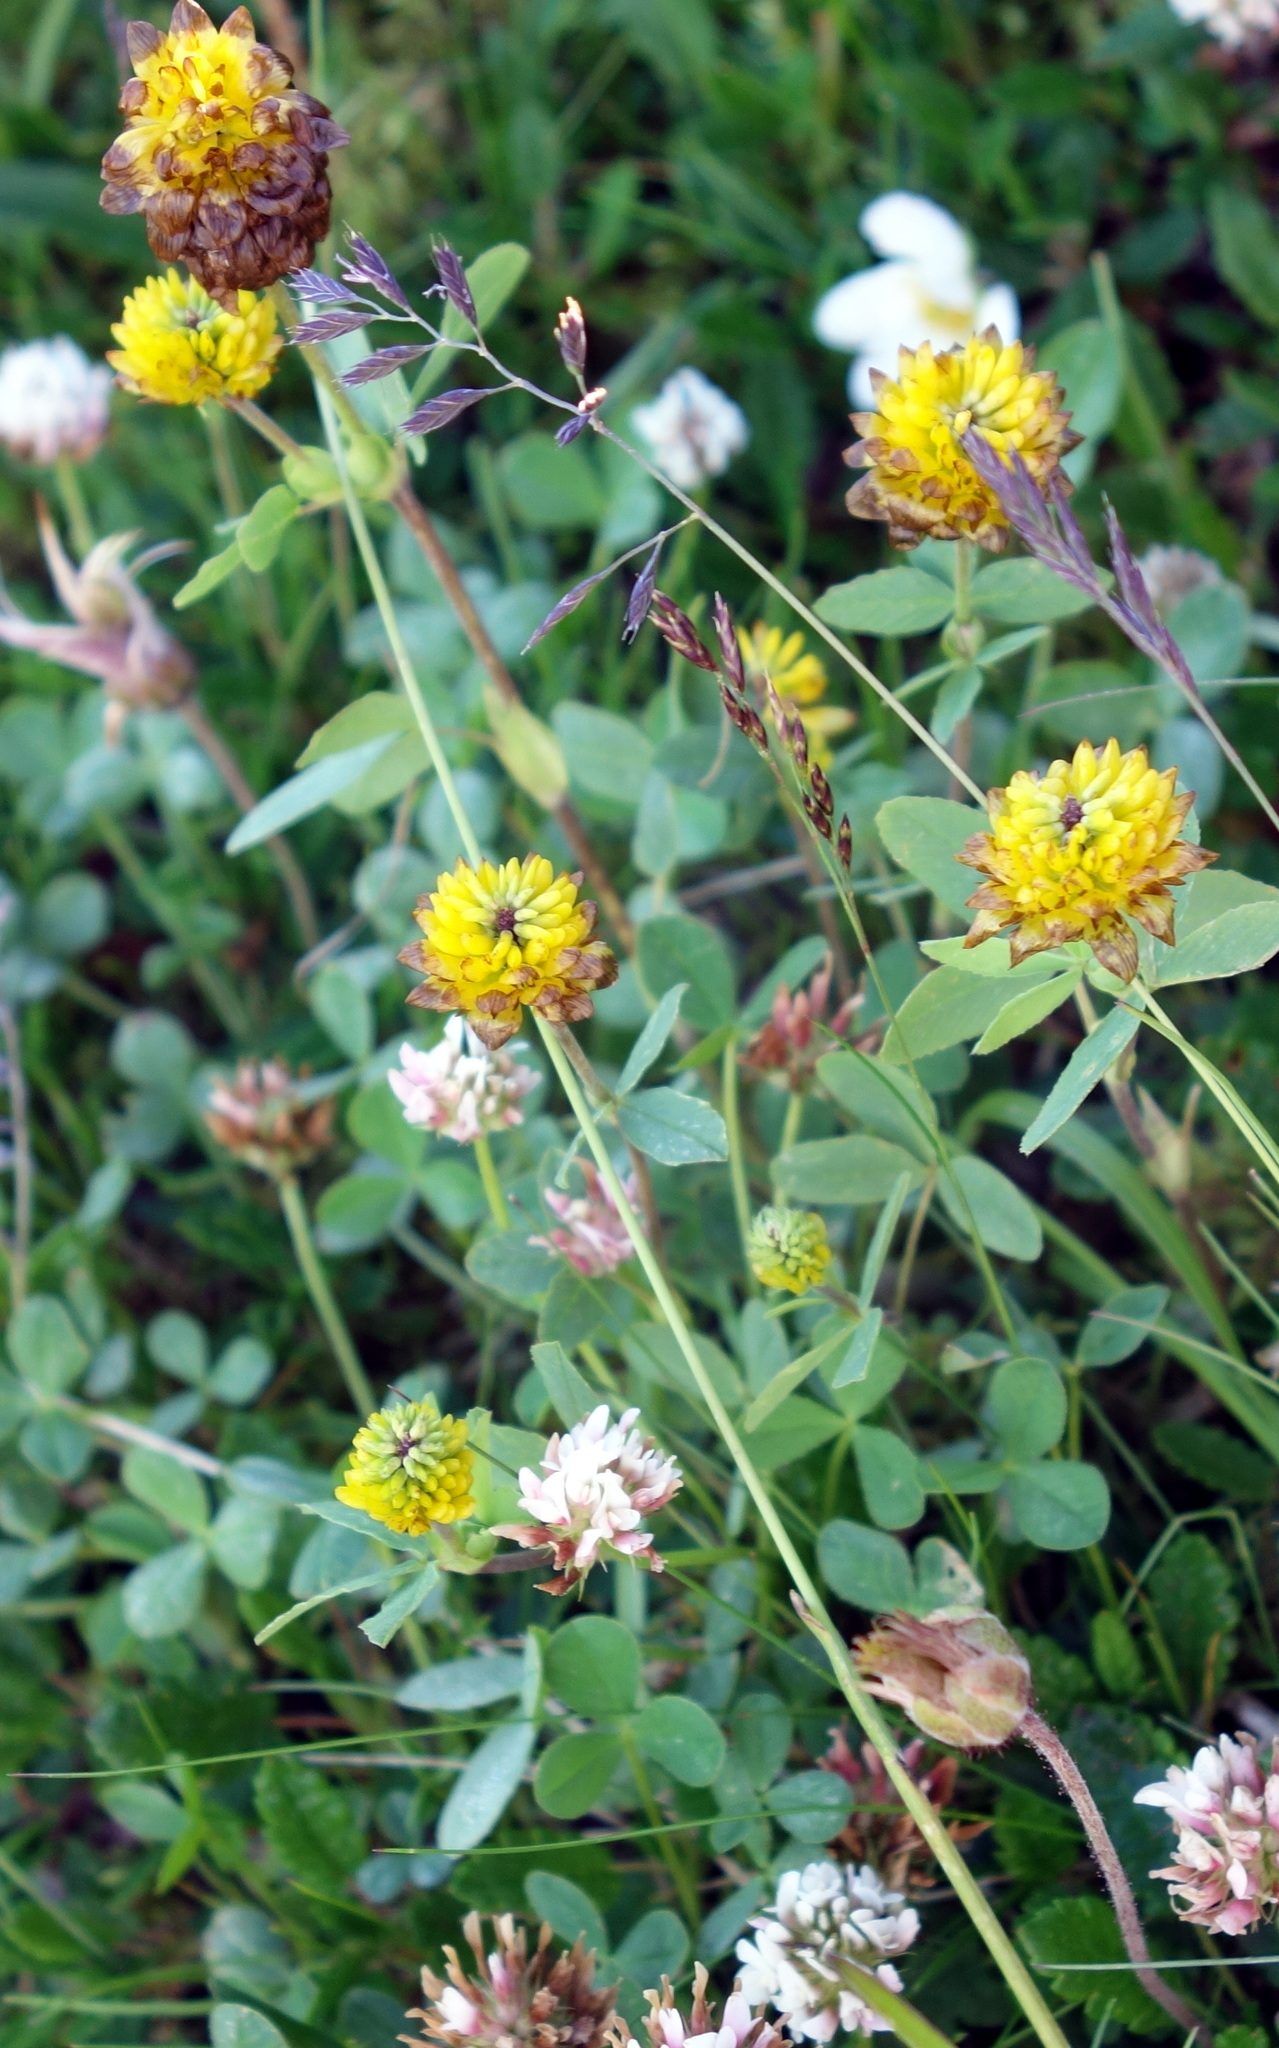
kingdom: Plantae
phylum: Tracheophyta
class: Magnoliopsida
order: Fabales
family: Fabaceae
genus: Trifolium
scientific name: Trifolium badium
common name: Brown clover
